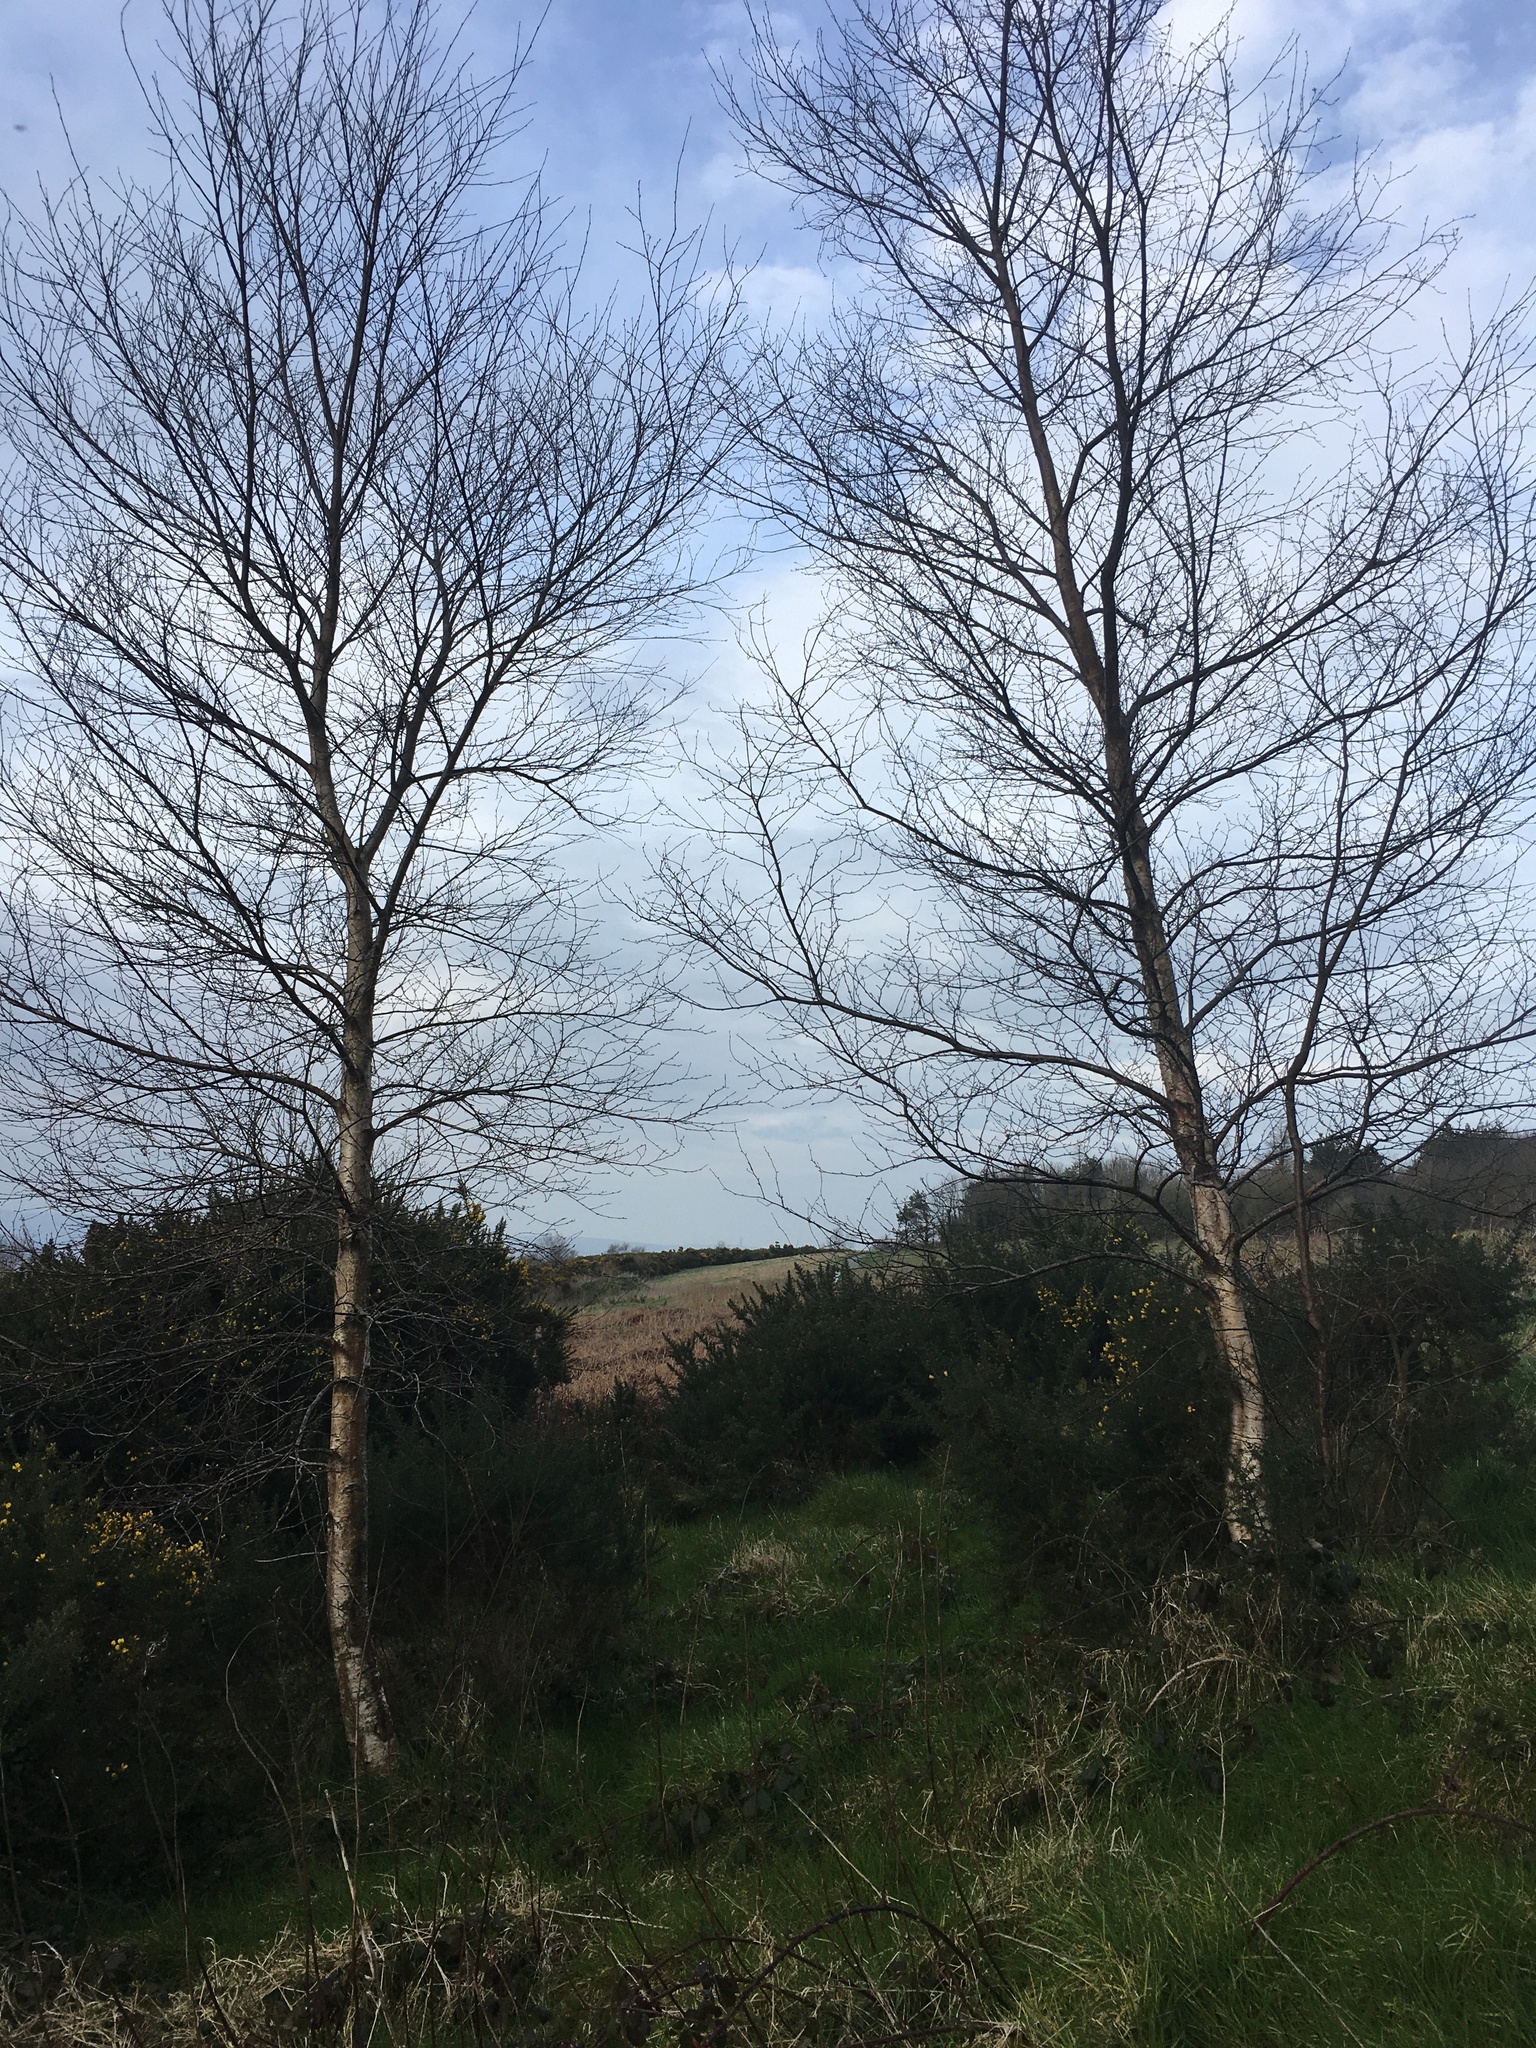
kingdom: Plantae
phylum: Tracheophyta
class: Magnoliopsida
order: Fagales
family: Betulaceae
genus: Betula
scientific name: Betula pendula
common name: Silver birch
